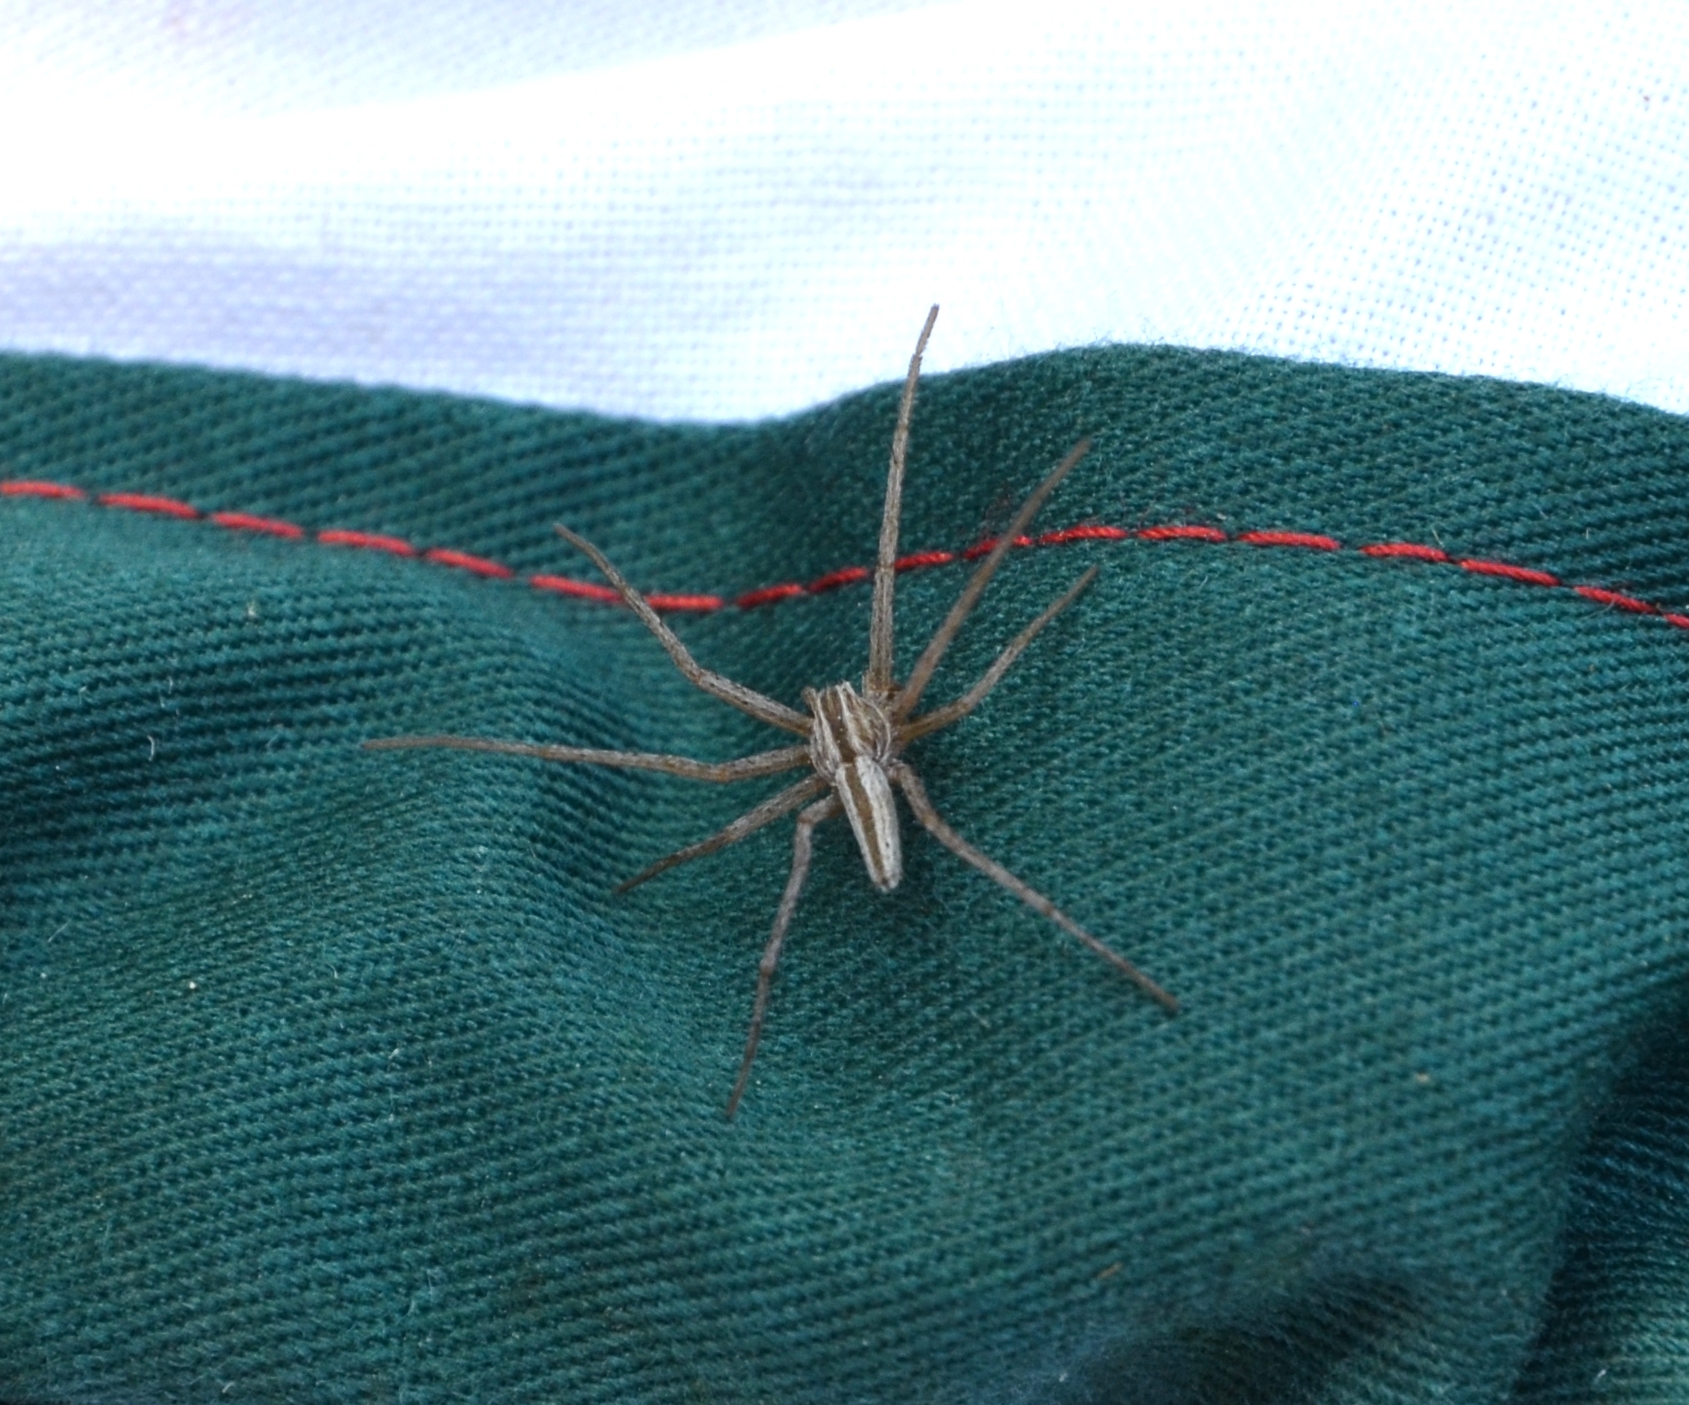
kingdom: Animalia
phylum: Arthropoda
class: Arachnida
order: Araneae
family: Philodromidae
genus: Tibellus
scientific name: Tibellus oblongus
